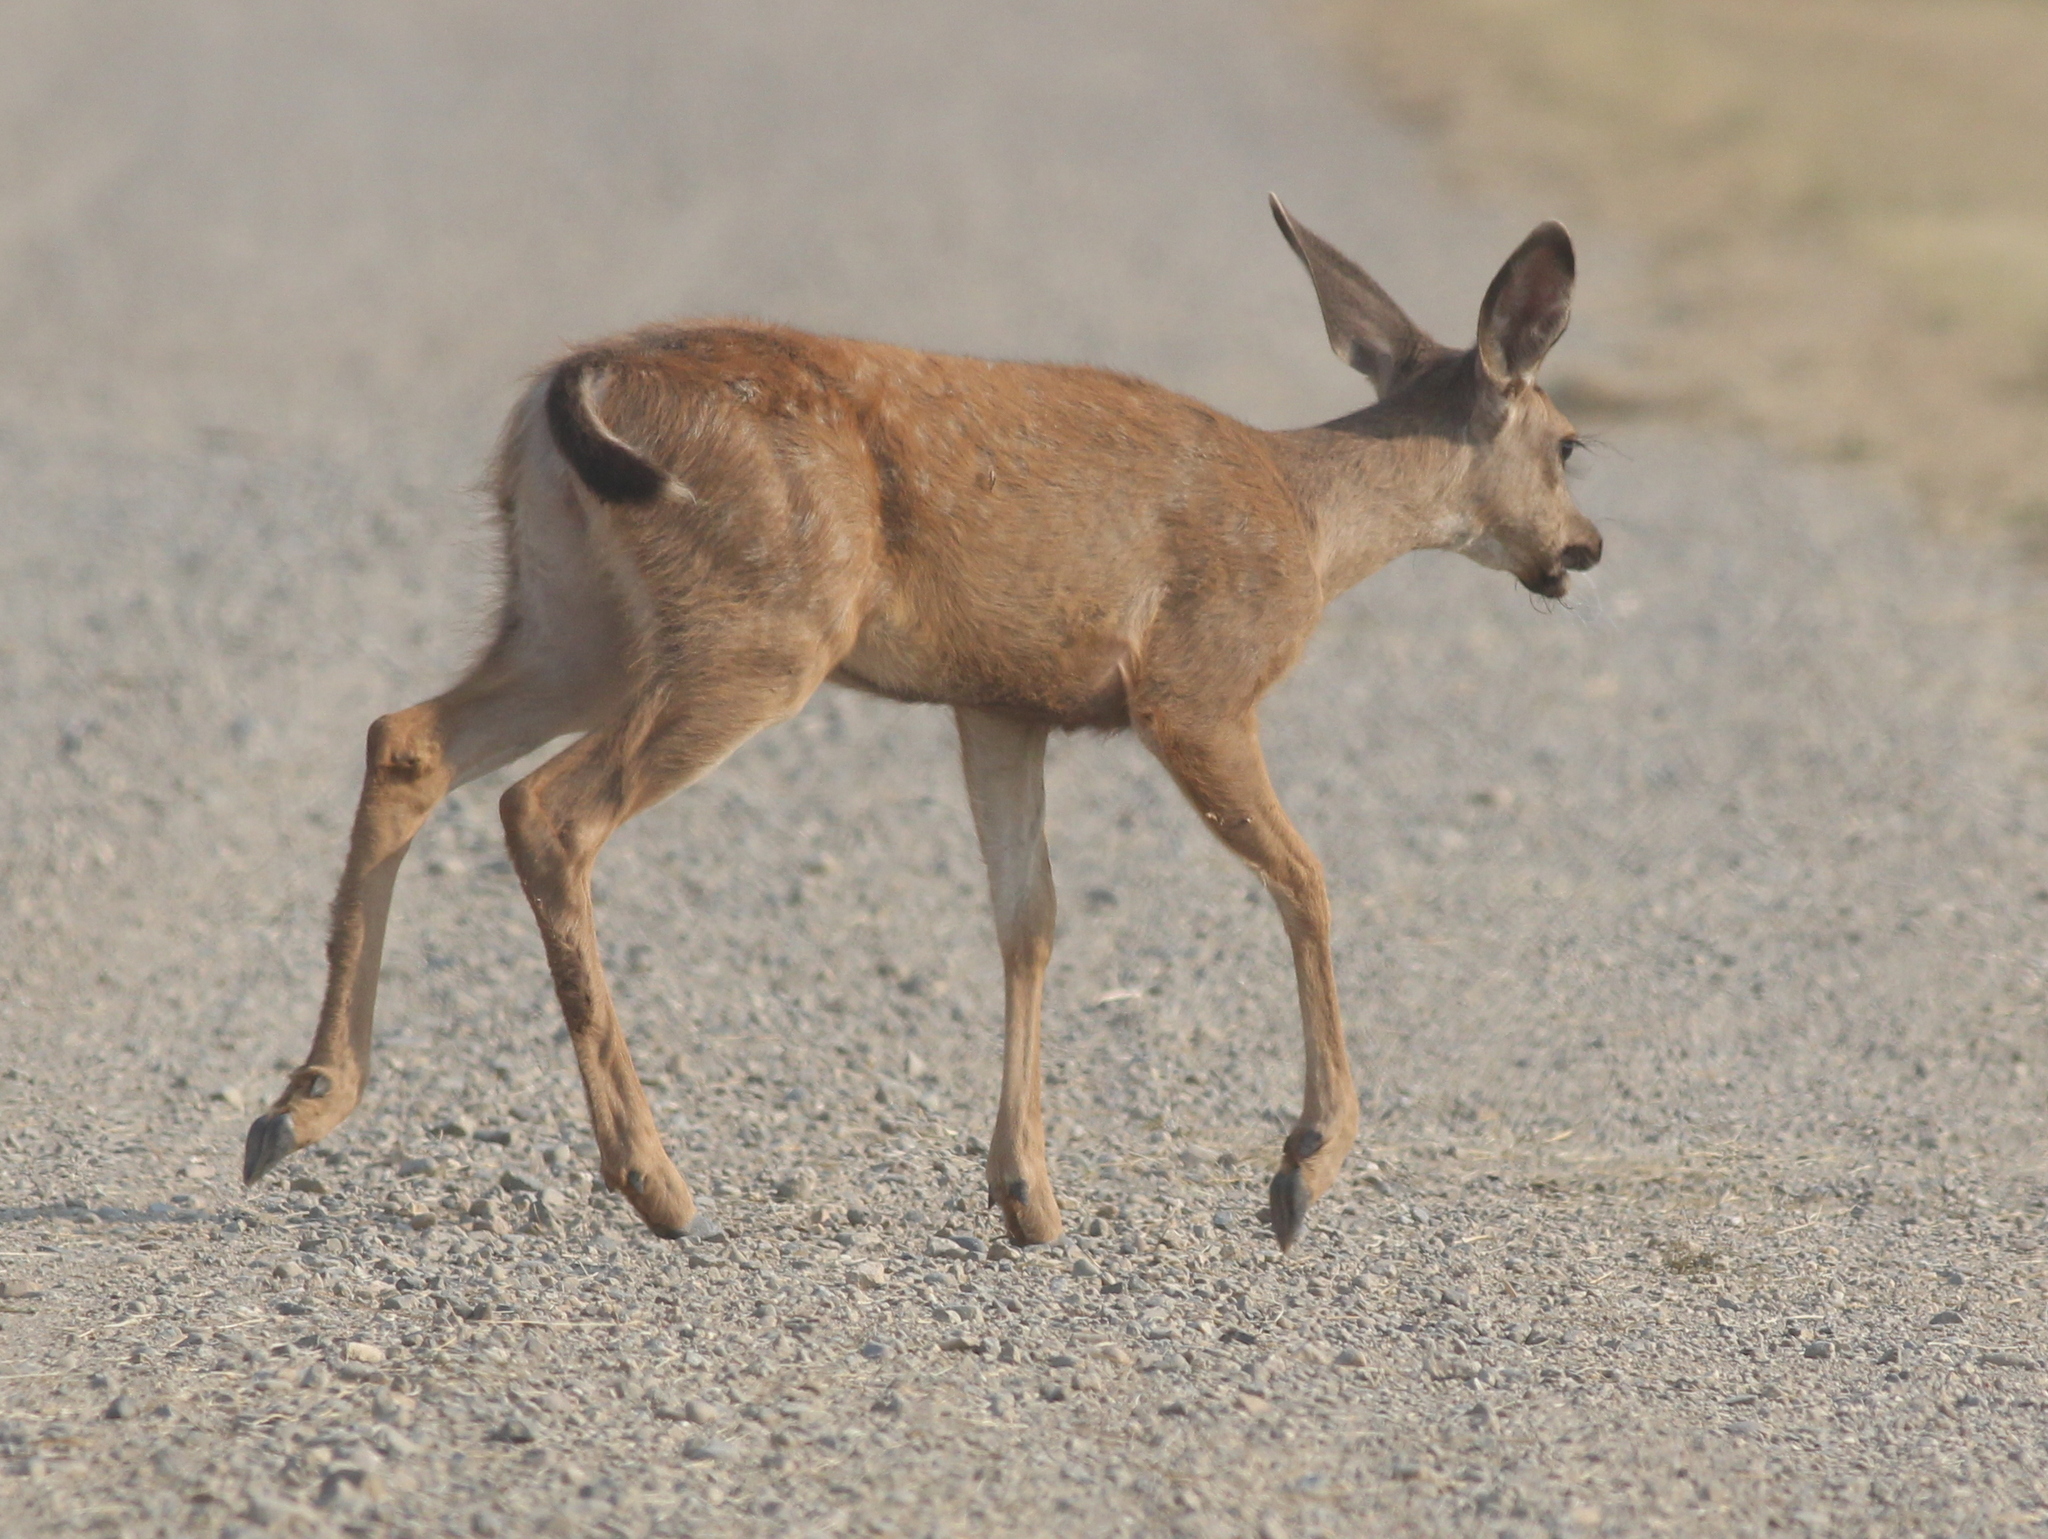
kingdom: Animalia
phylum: Chordata
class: Mammalia
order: Artiodactyla
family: Cervidae
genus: Odocoileus
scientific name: Odocoileus hemionus
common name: Mule deer
